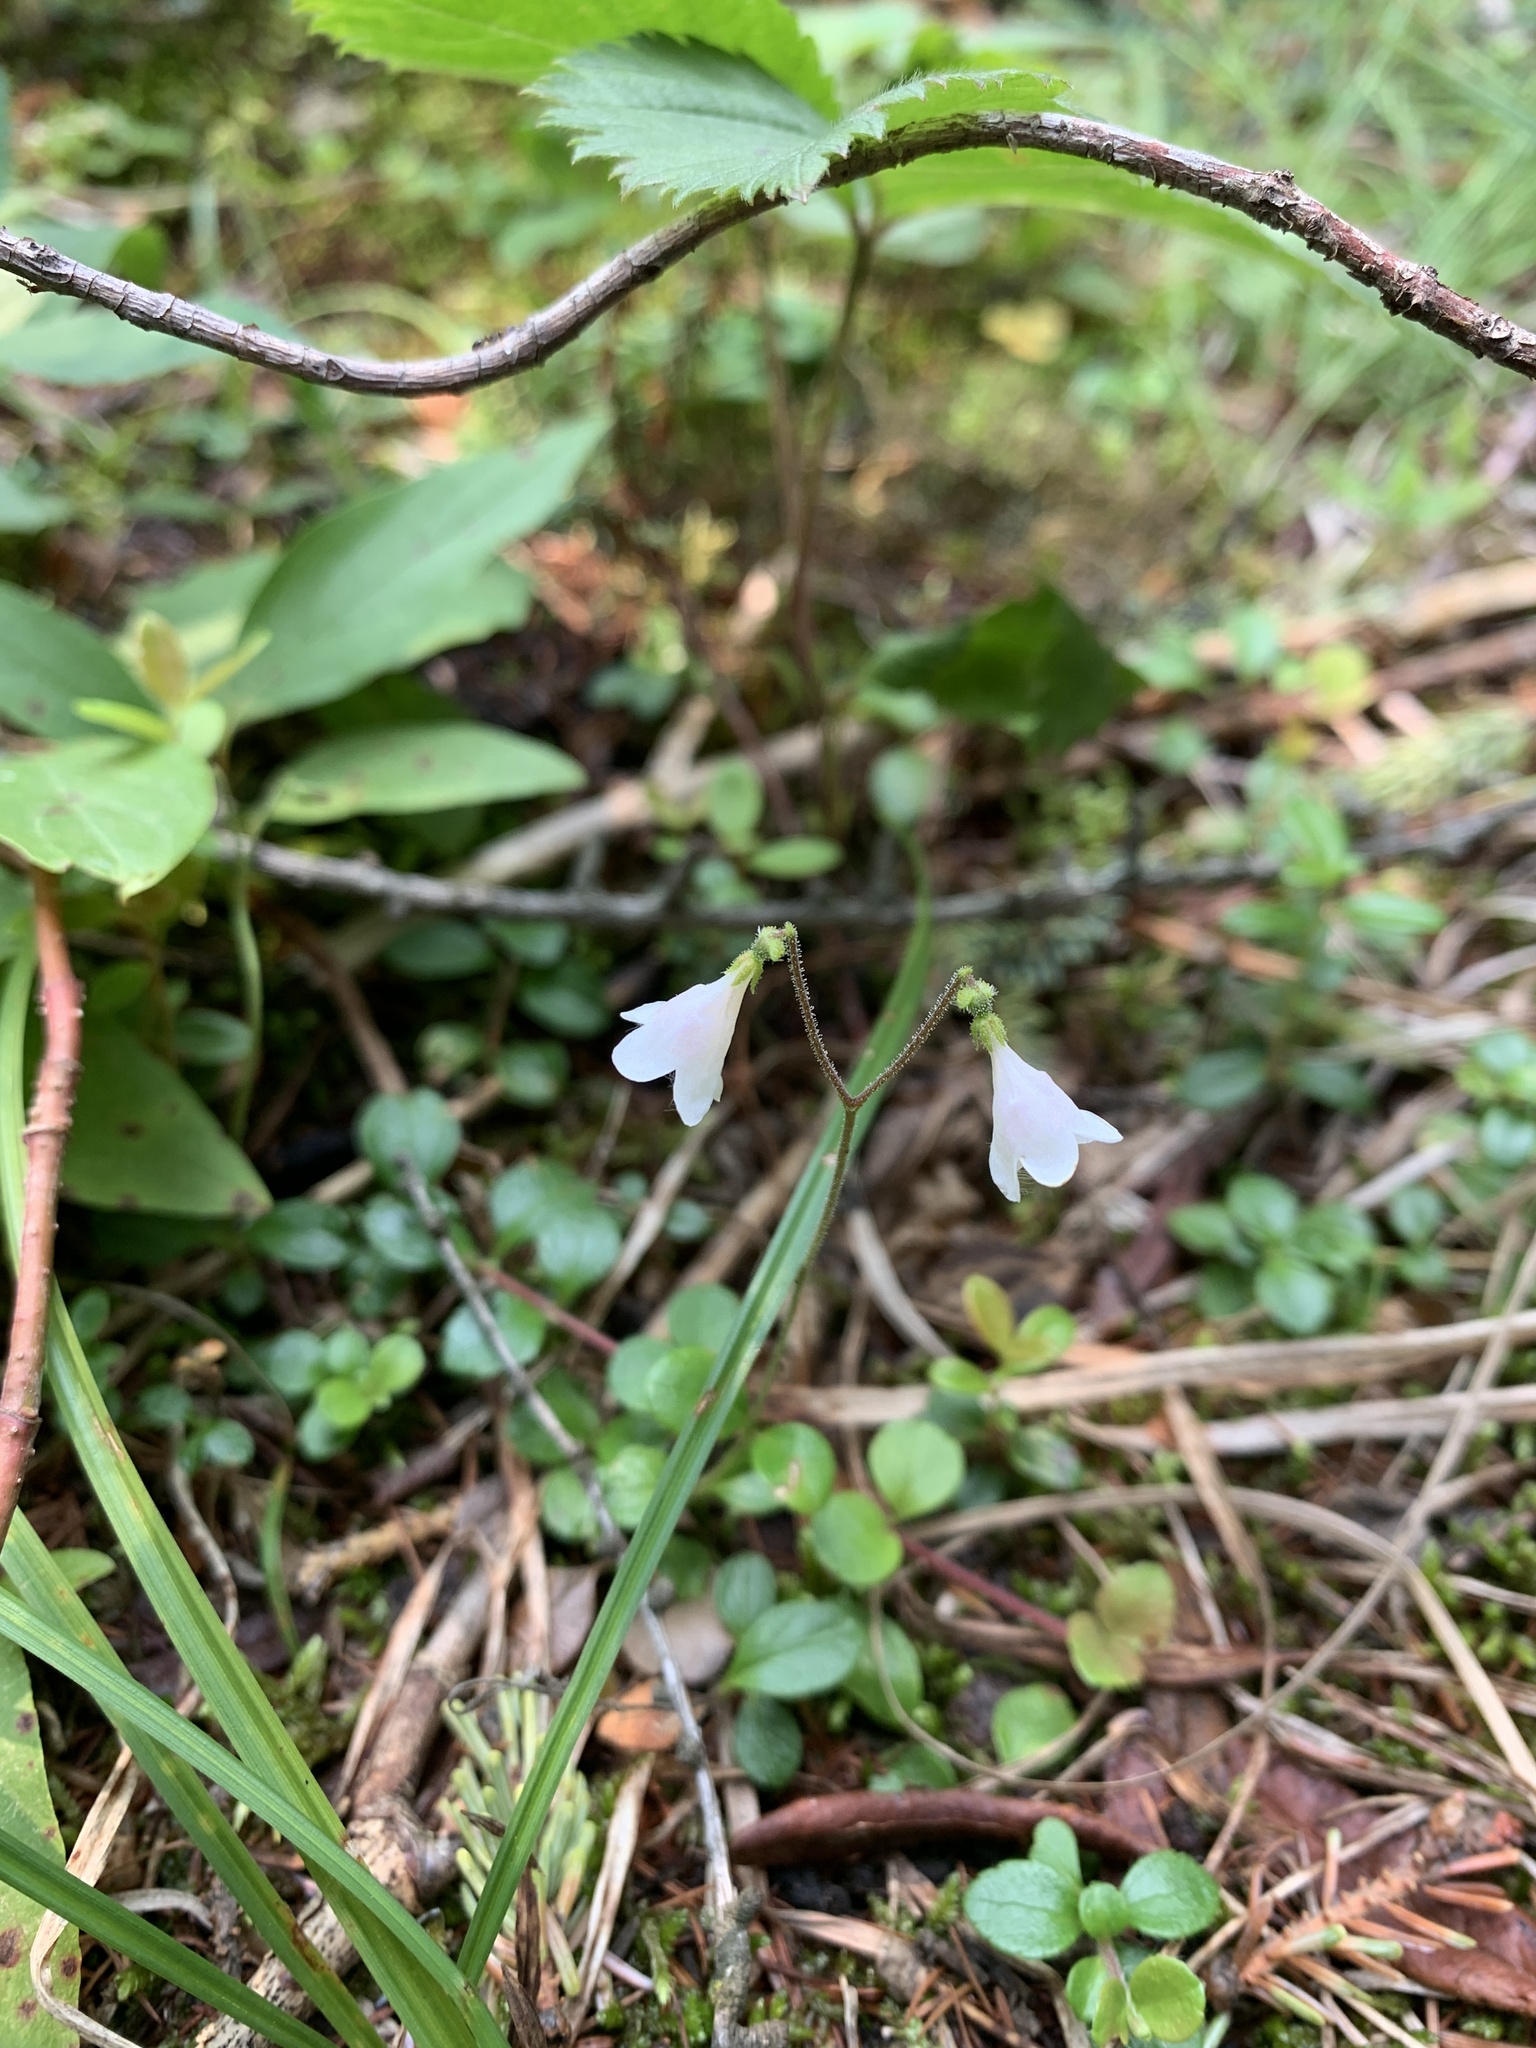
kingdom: Plantae
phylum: Tracheophyta
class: Magnoliopsida
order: Dipsacales
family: Caprifoliaceae
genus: Linnaea
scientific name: Linnaea borealis
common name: Twinflower
